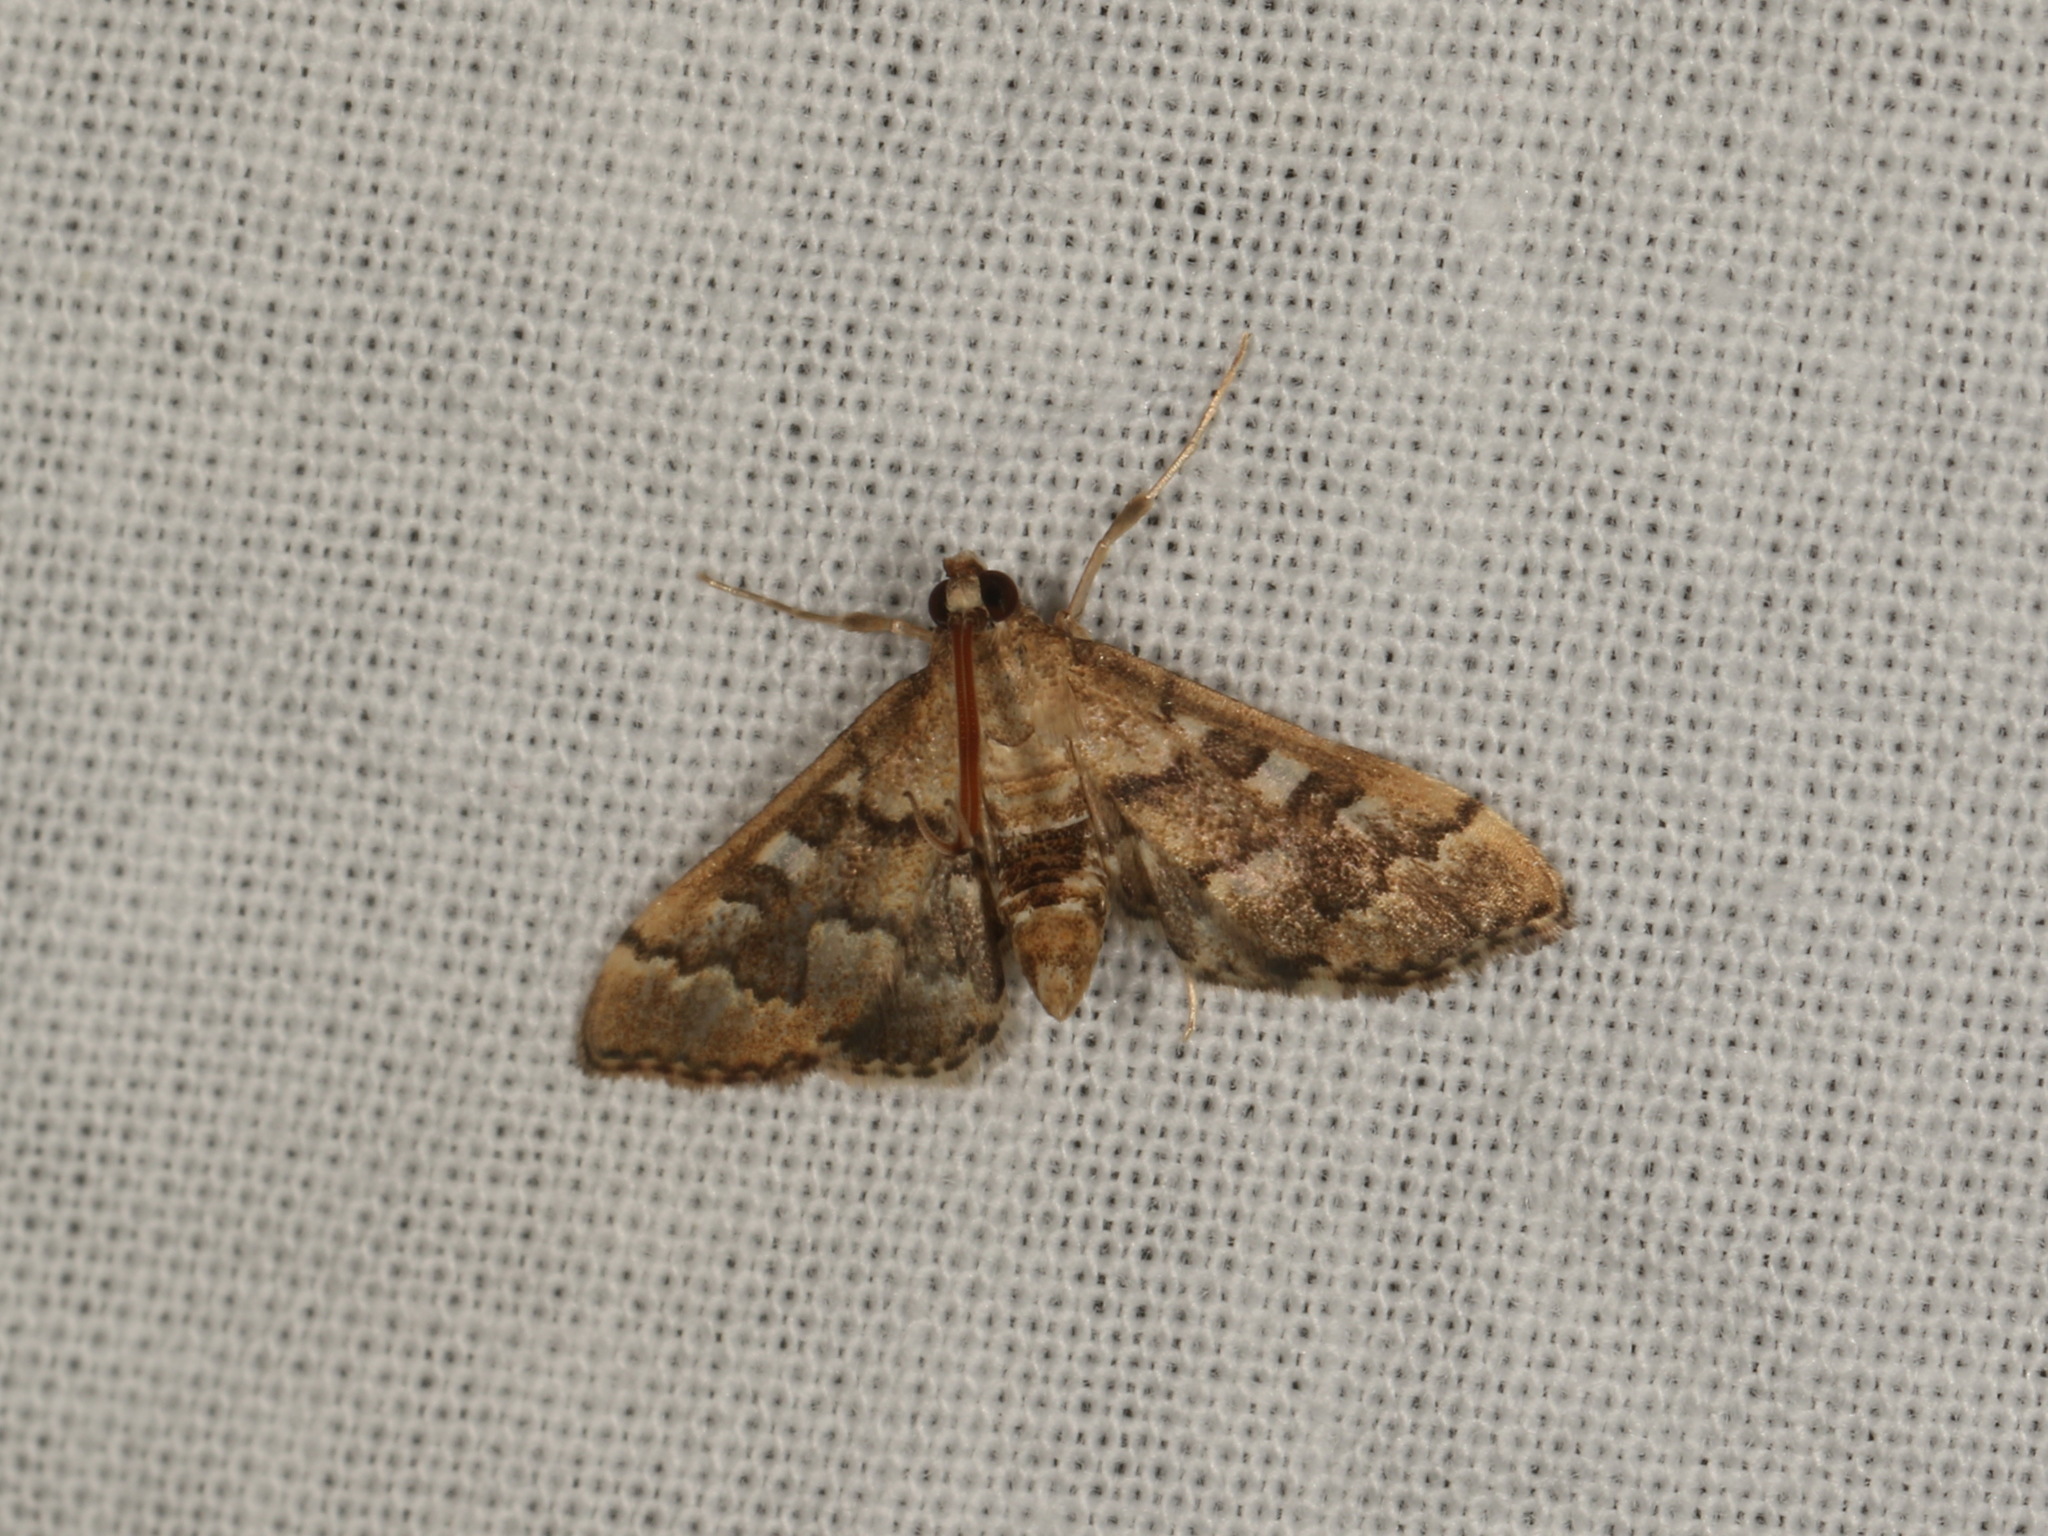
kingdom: Animalia
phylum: Arthropoda
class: Insecta
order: Lepidoptera
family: Crambidae
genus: Nacoleia
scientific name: Nacoleia rhoeoalis
